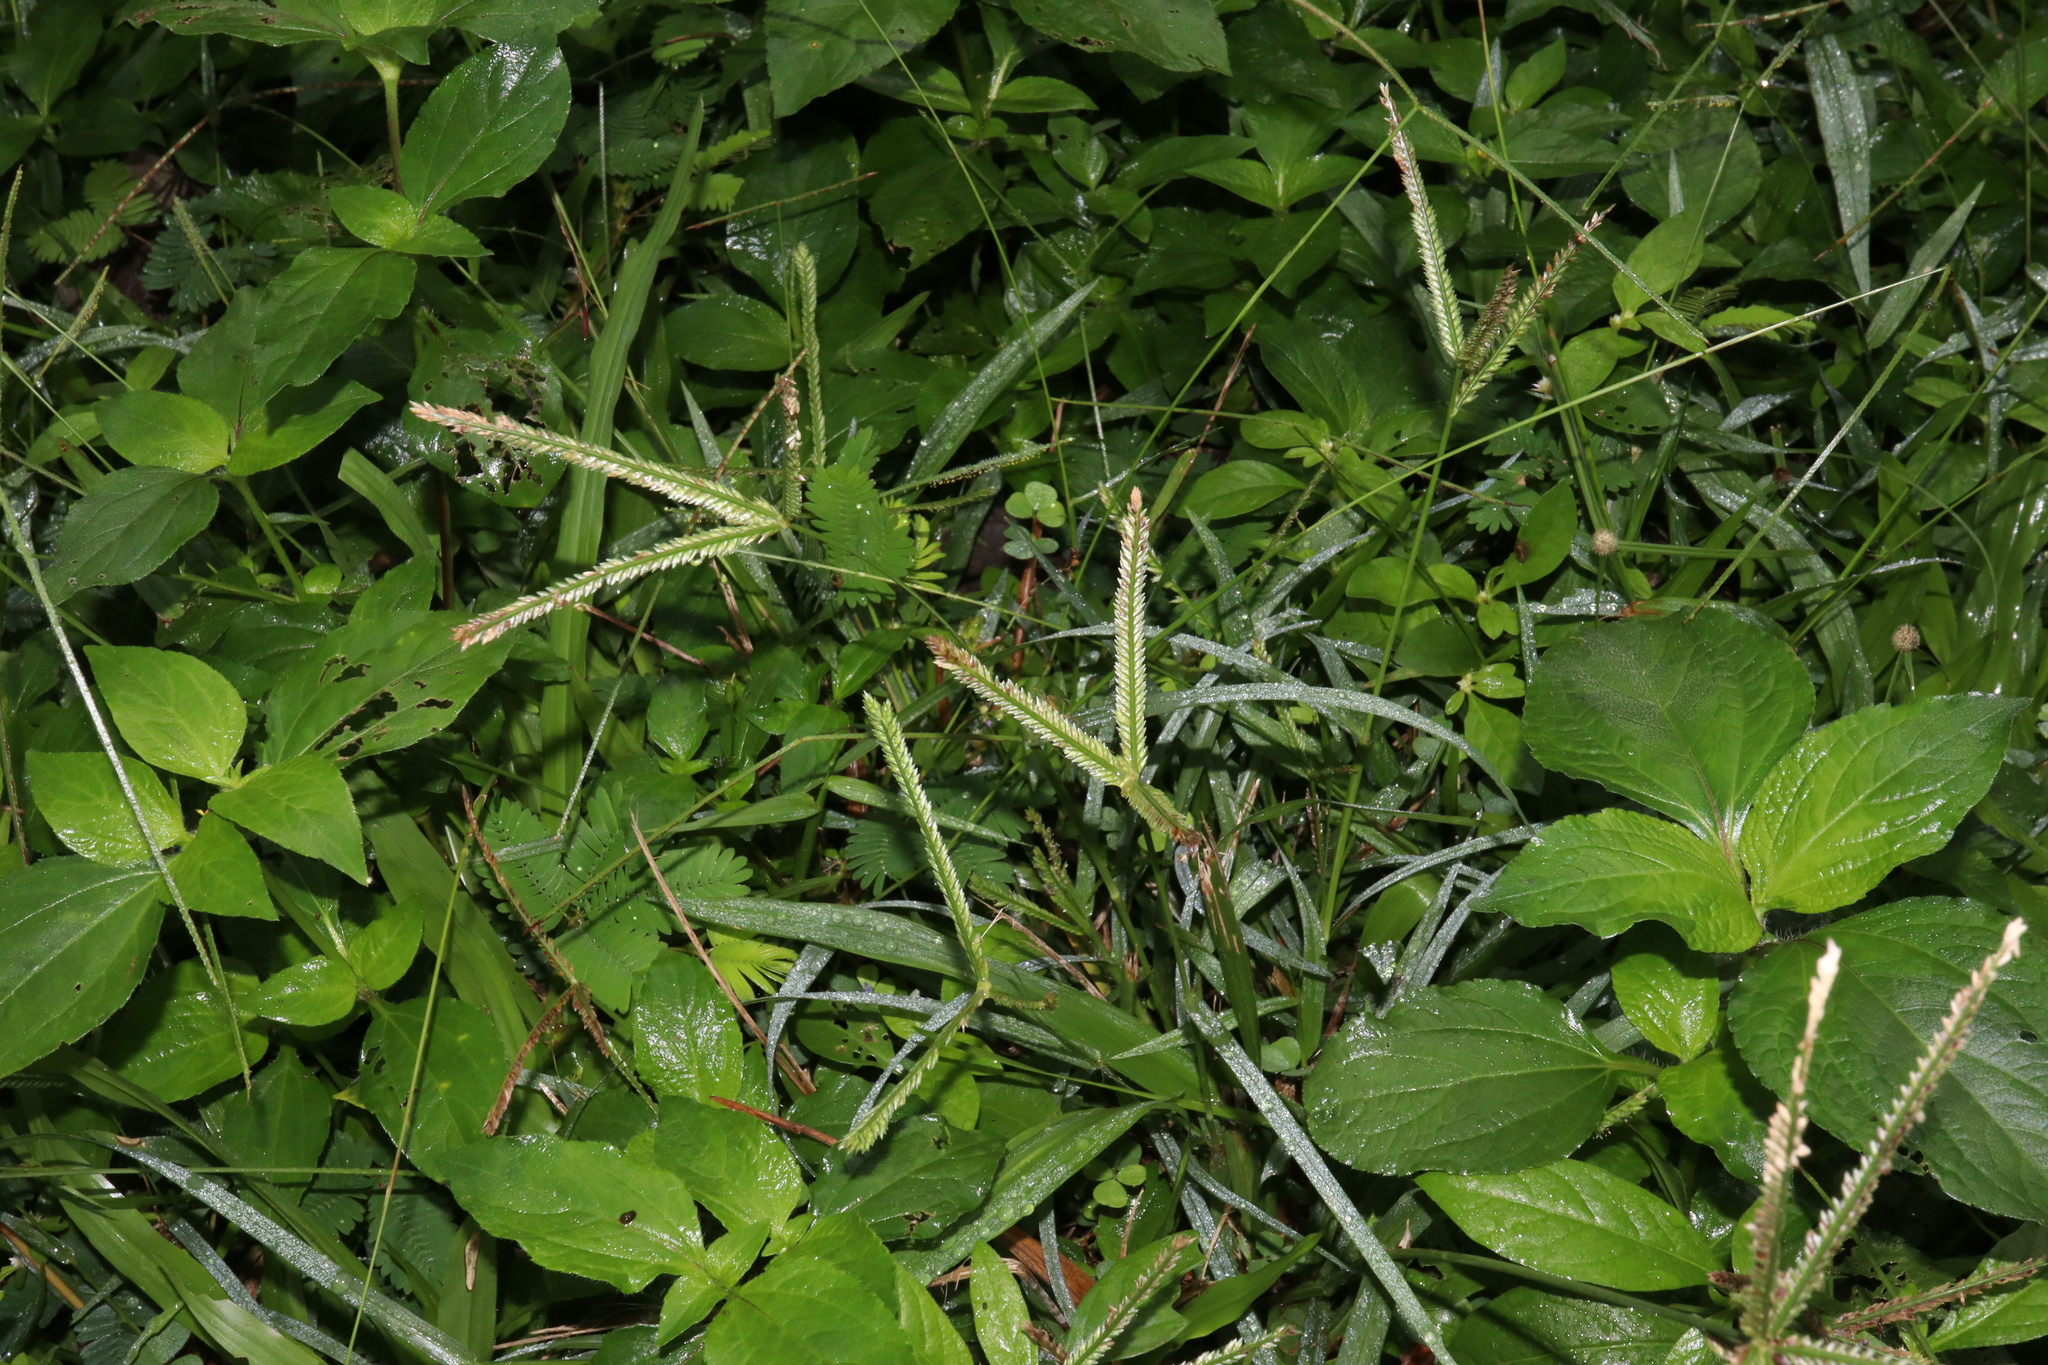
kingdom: Plantae
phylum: Tracheophyta
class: Liliopsida
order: Poales
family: Poaceae
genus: Eleusine
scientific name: Eleusine indica
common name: Yard-grass
